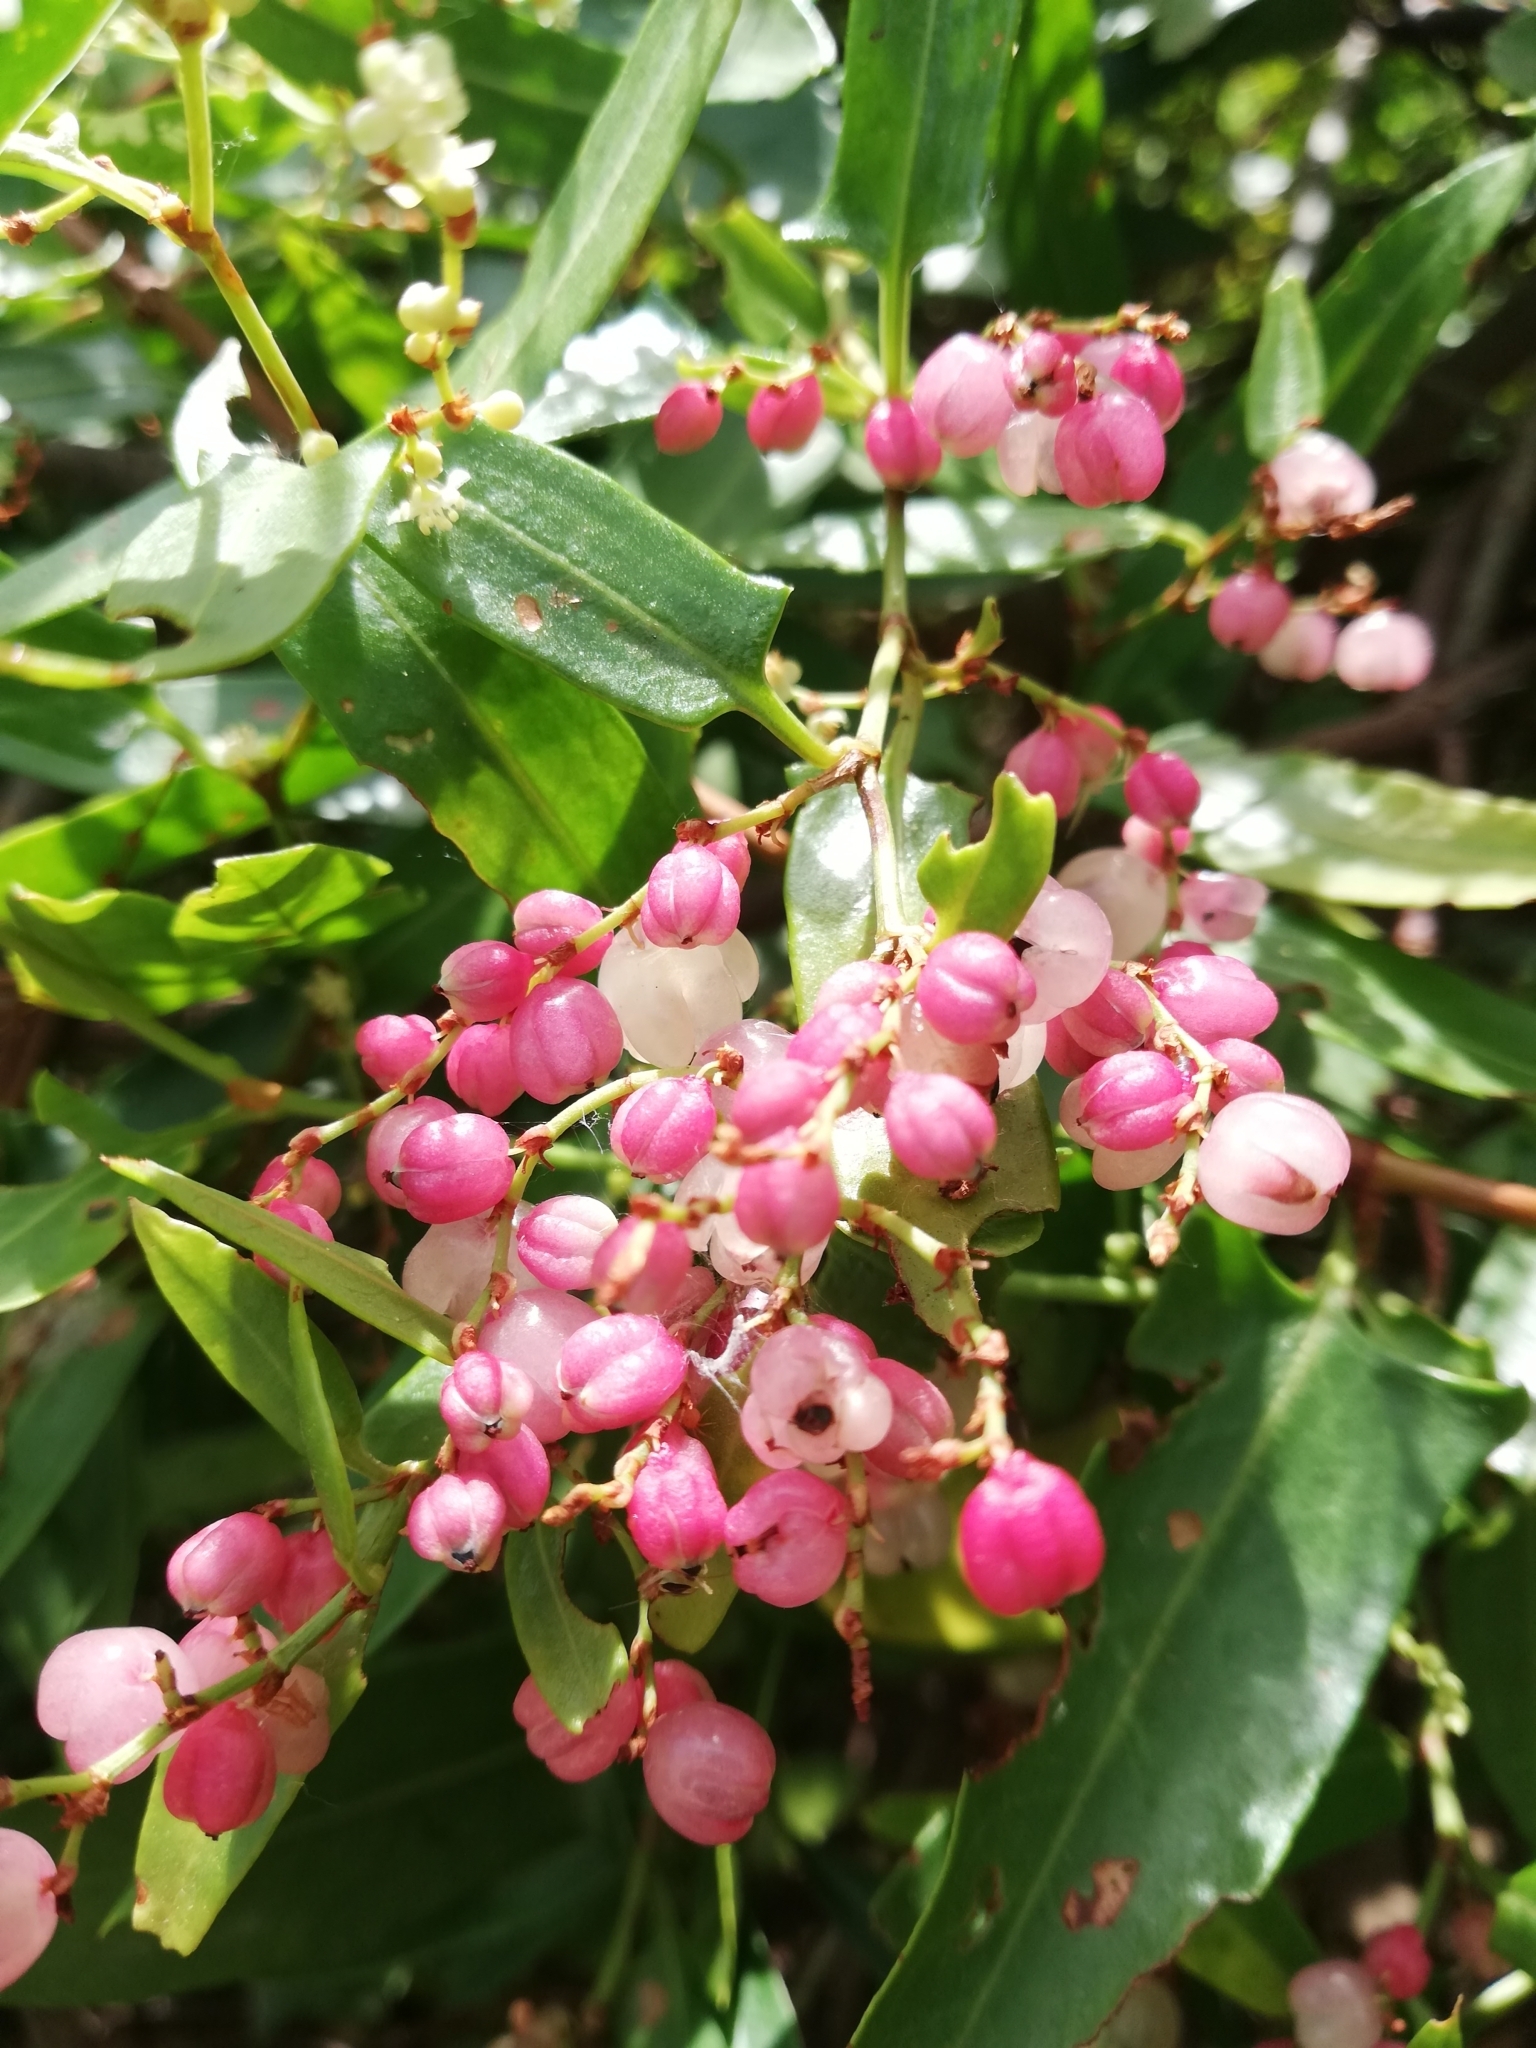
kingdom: Plantae
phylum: Tracheophyta
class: Magnoliopsida
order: Caryophyllales
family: Polygonaceae
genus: Muehlenbeckia
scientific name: Muehlenbeckia sagittifolia
